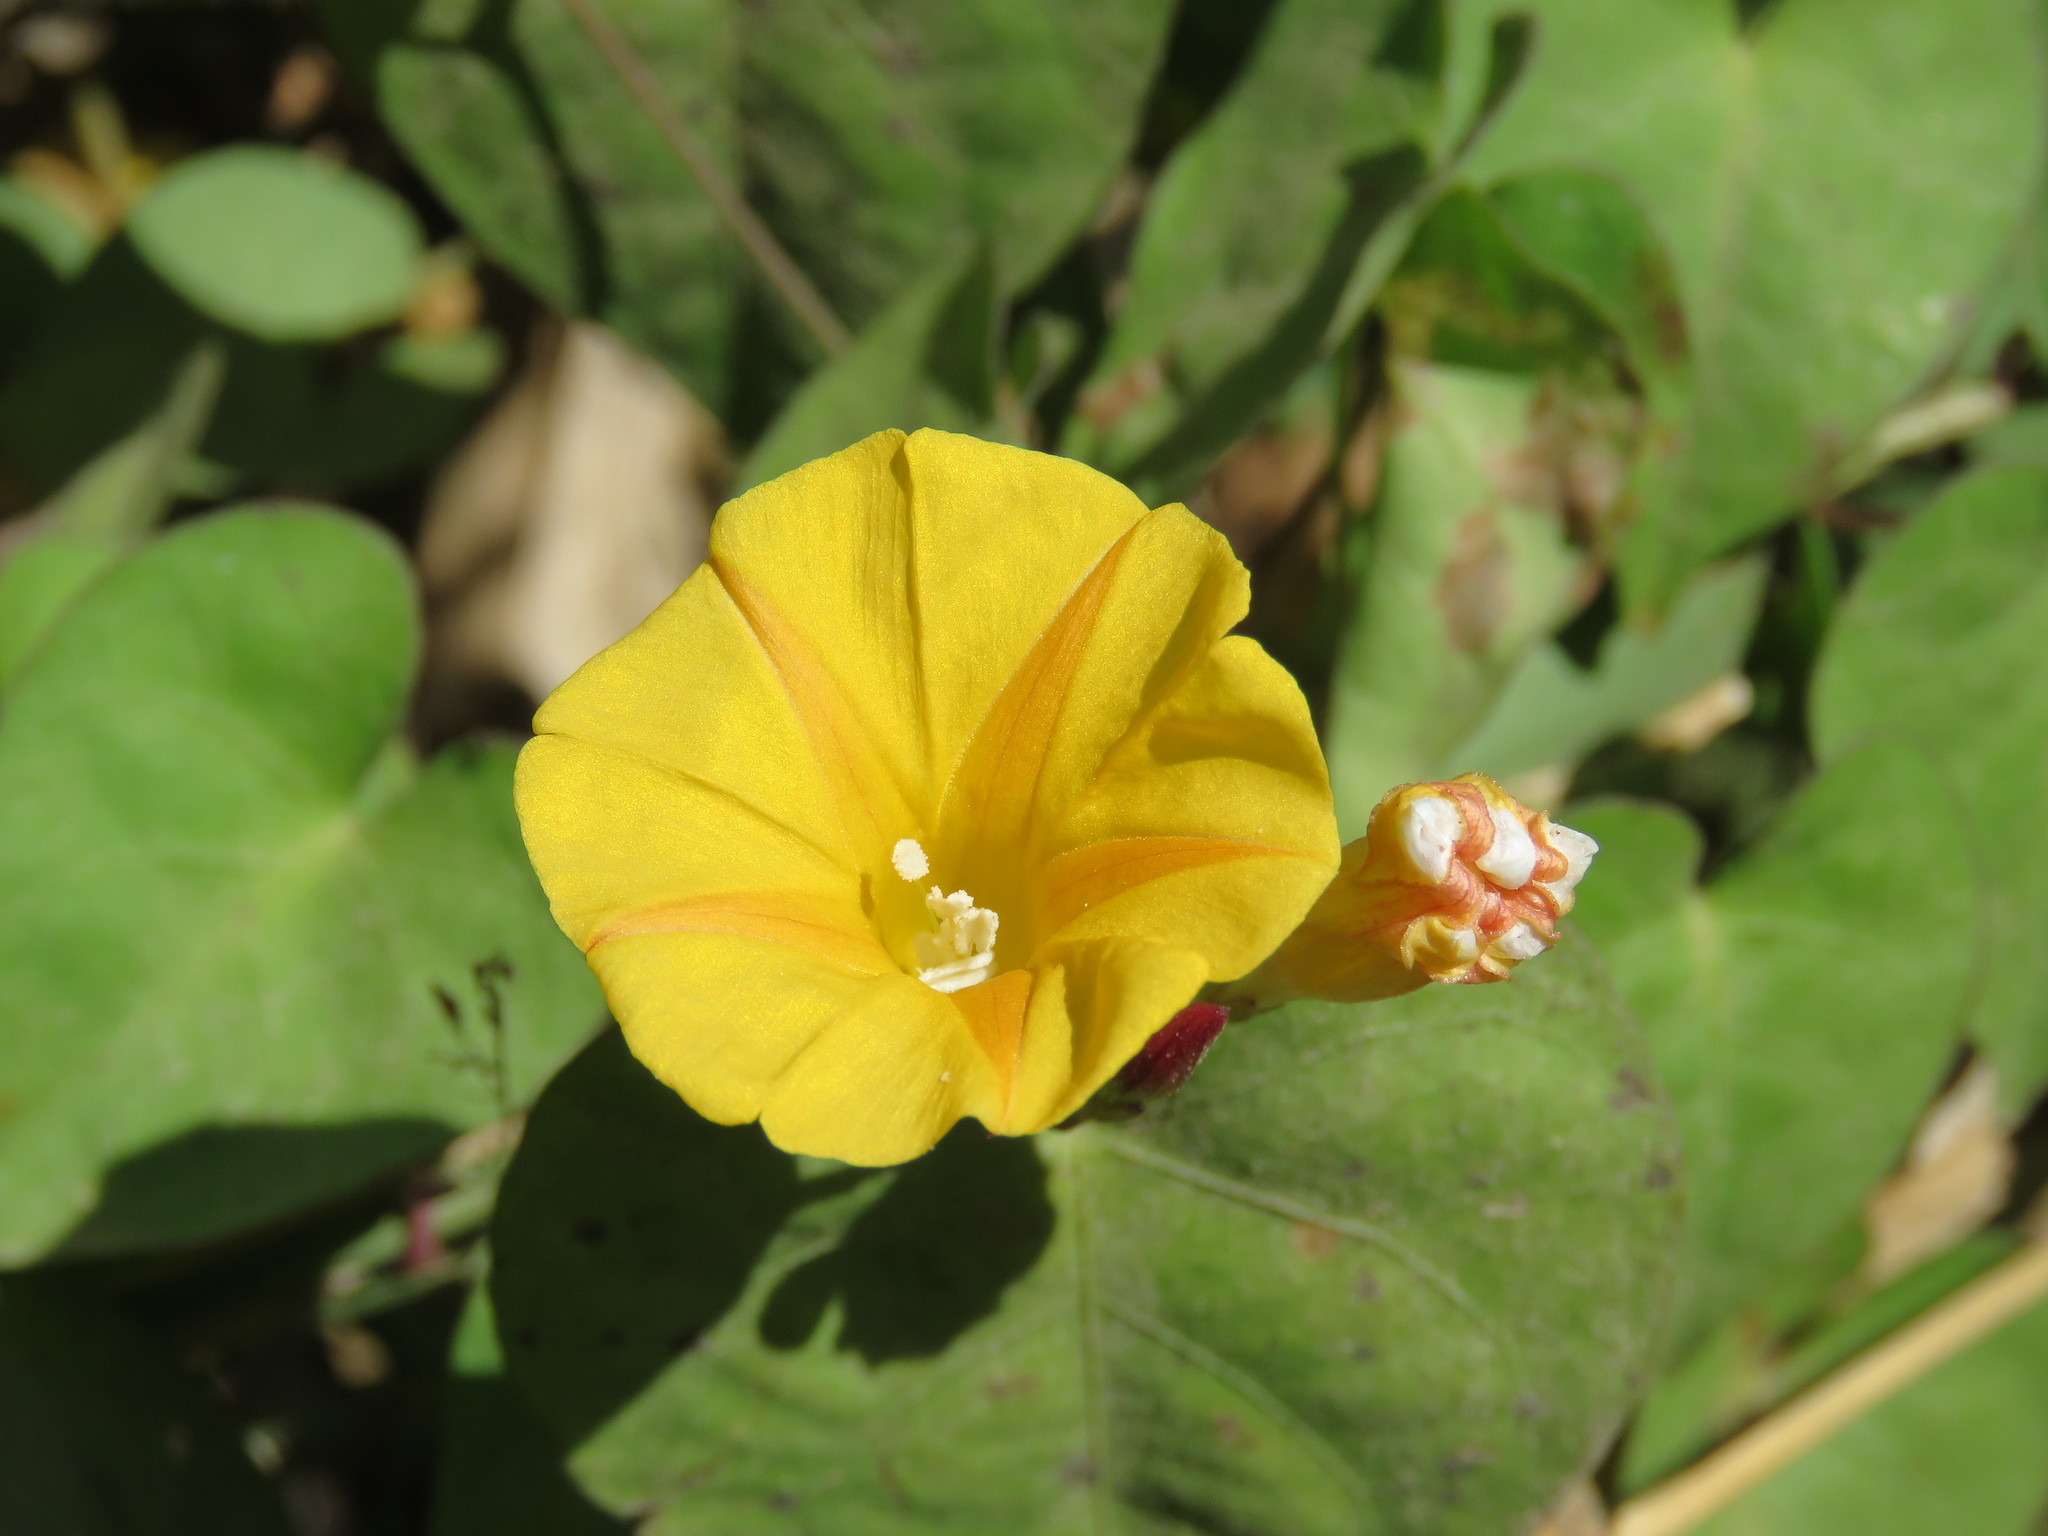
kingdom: Plantae
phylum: Tracheophyta
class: Magnoliopsida
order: Solanales
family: Convolvulaceae
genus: Ipomoea
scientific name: Ipomoea microsepala
